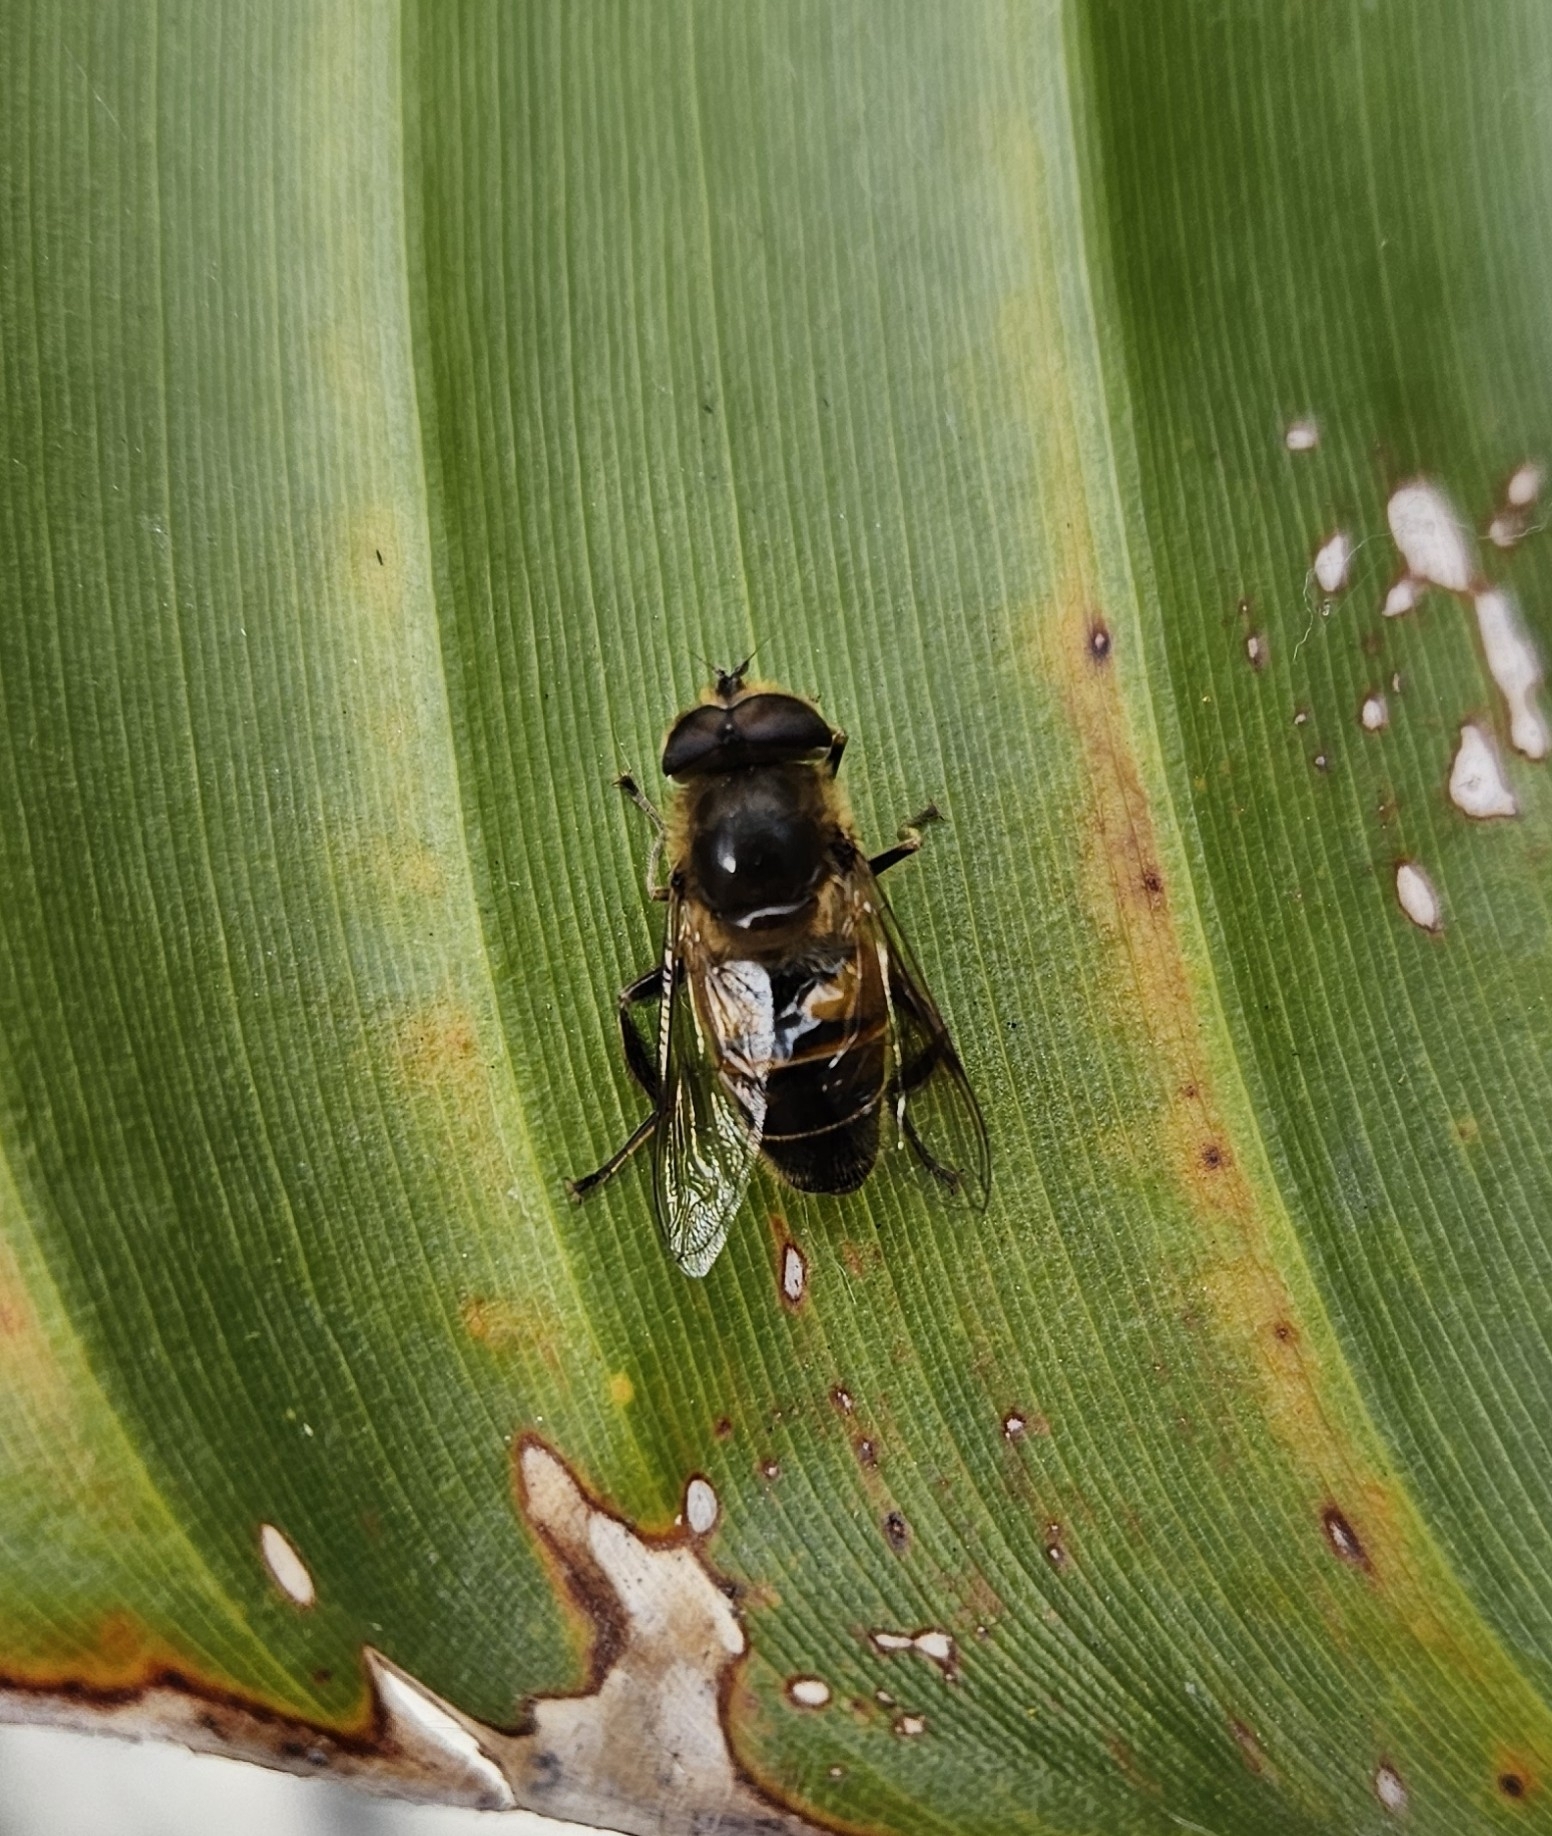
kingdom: Animalia
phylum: Arthropoda
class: Insecta
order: Diptera
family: Syrphidae
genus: Eristalis
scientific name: Eristalis tenax
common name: Drone fly
